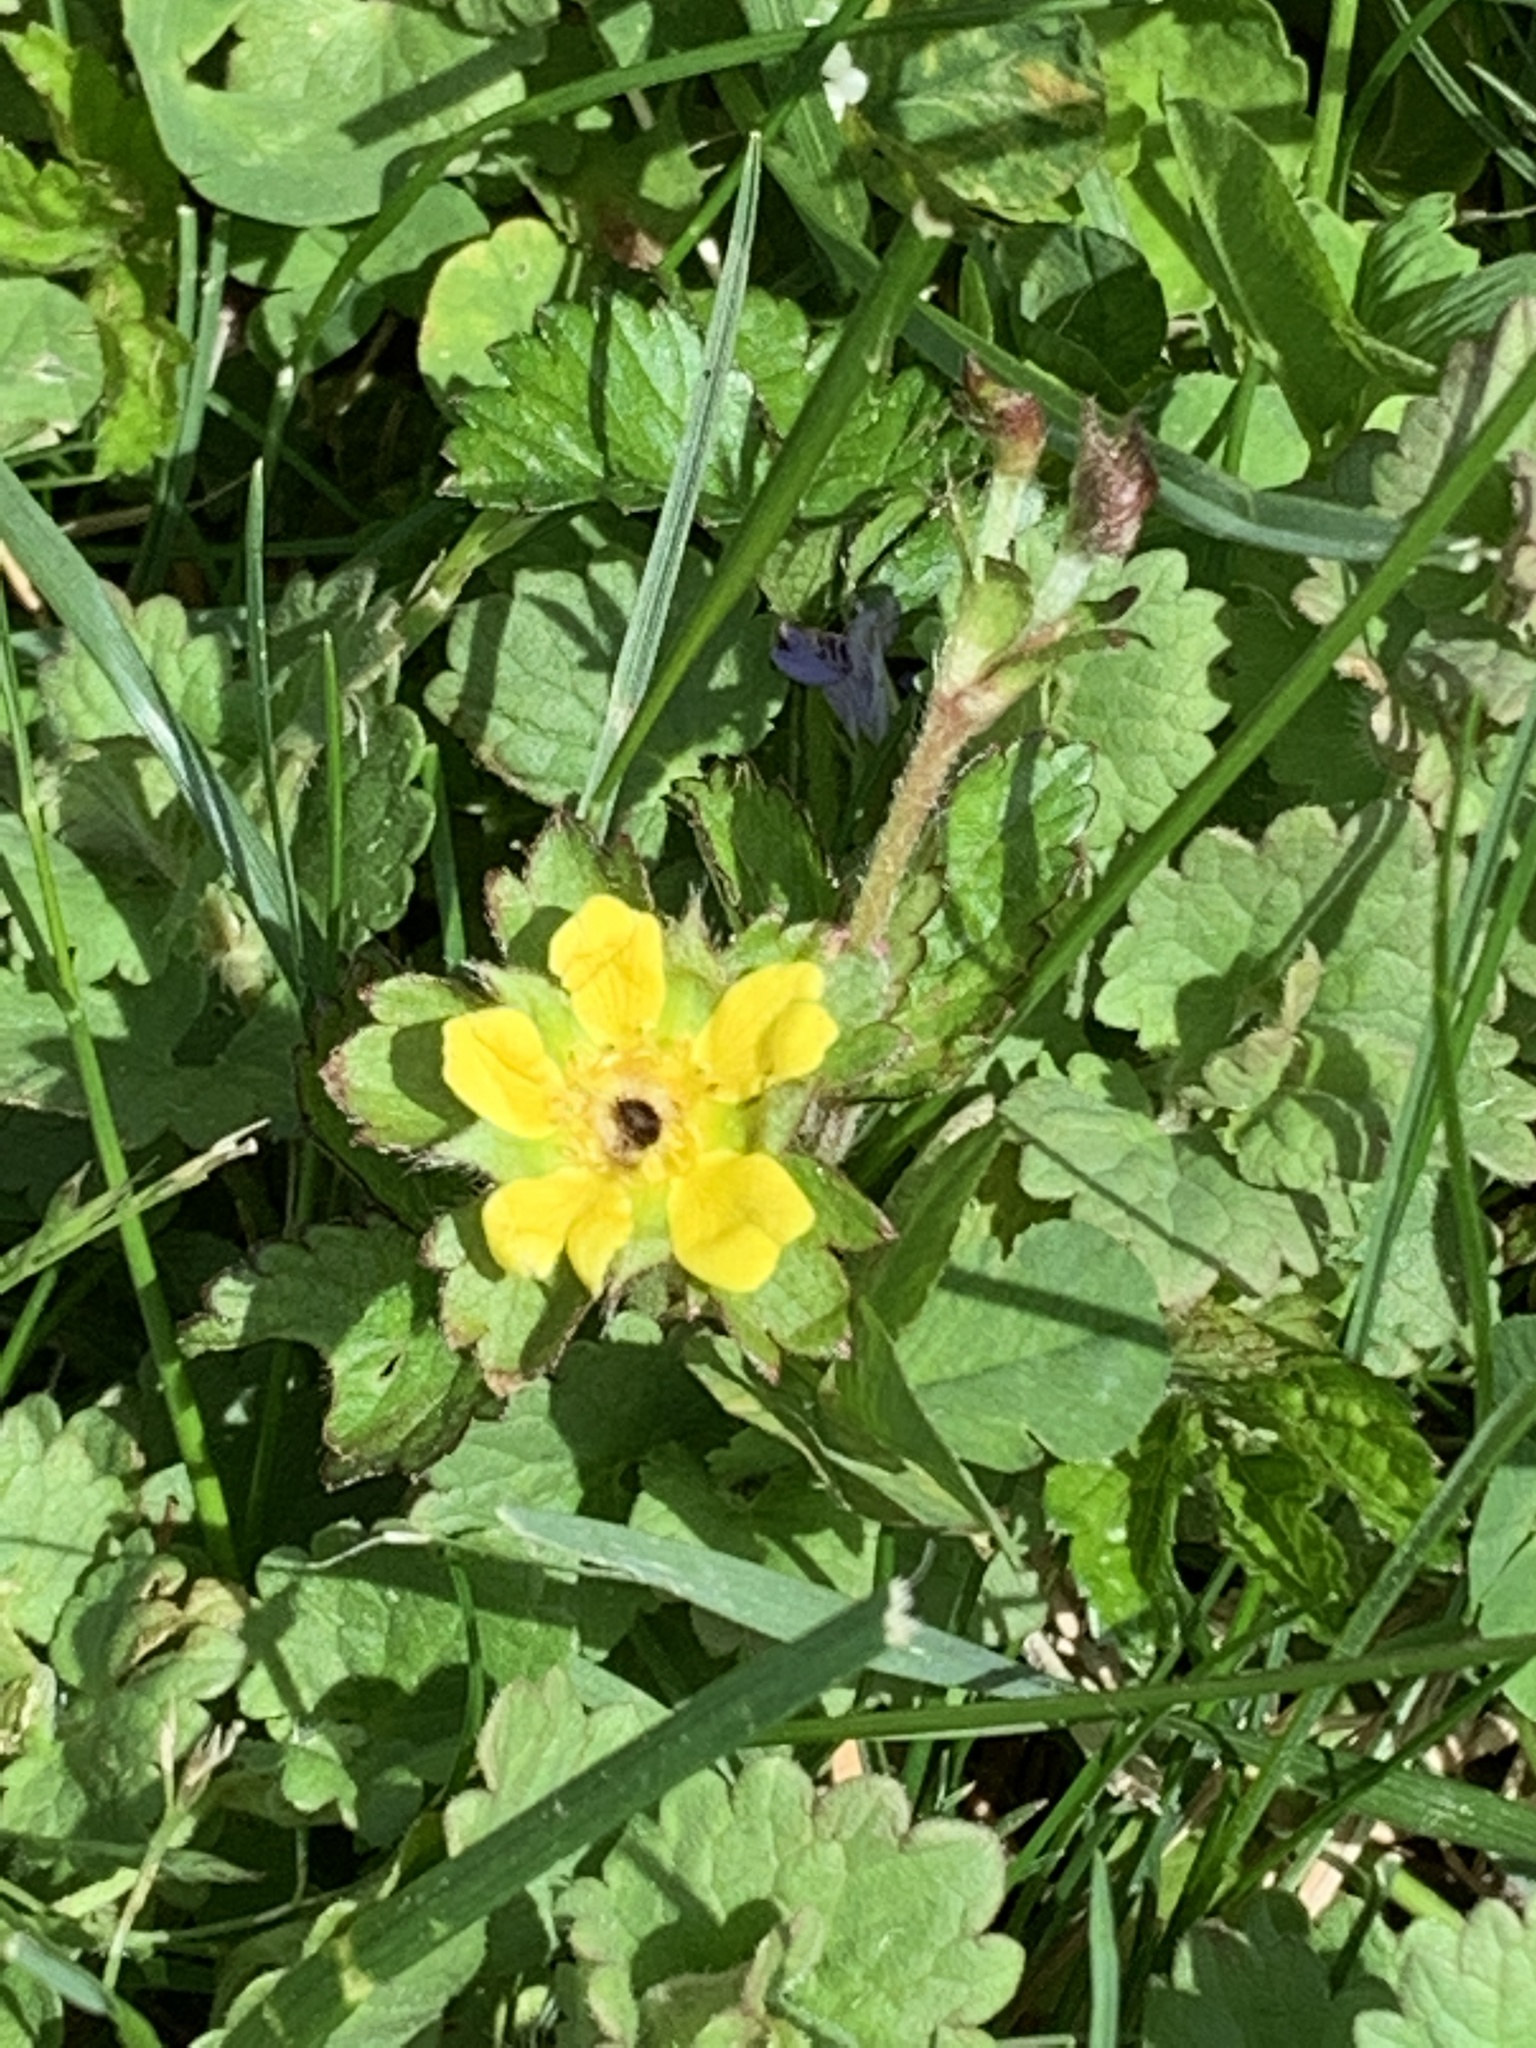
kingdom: Plantae
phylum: Tracheophyta
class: Magnoliopsida
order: Rosales
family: Rosaceae
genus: Potentilla
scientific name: Potentilla indica
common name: Yellow-flowered strawberry
